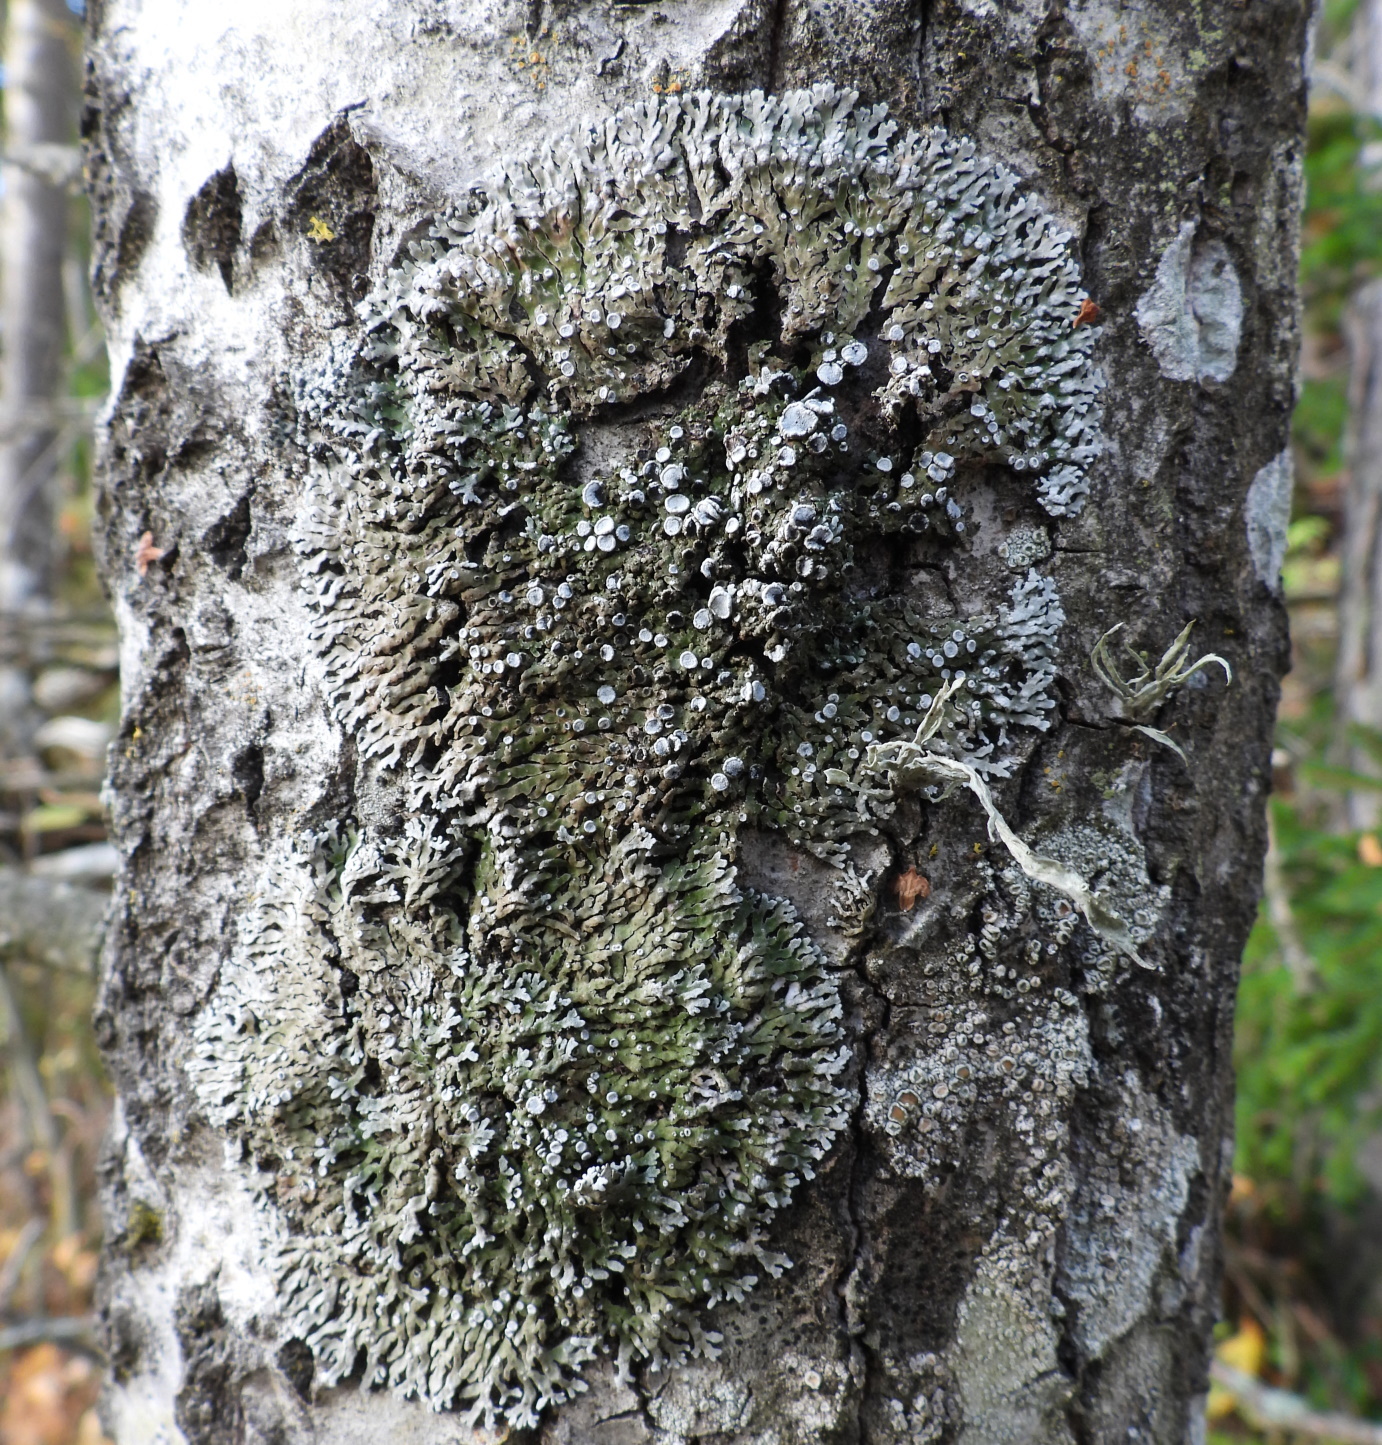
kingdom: Fungi
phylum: Ascomycota
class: Lecanoromycetes
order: Caliciales
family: Physciaceae
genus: Physconia
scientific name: Physconia distorta
